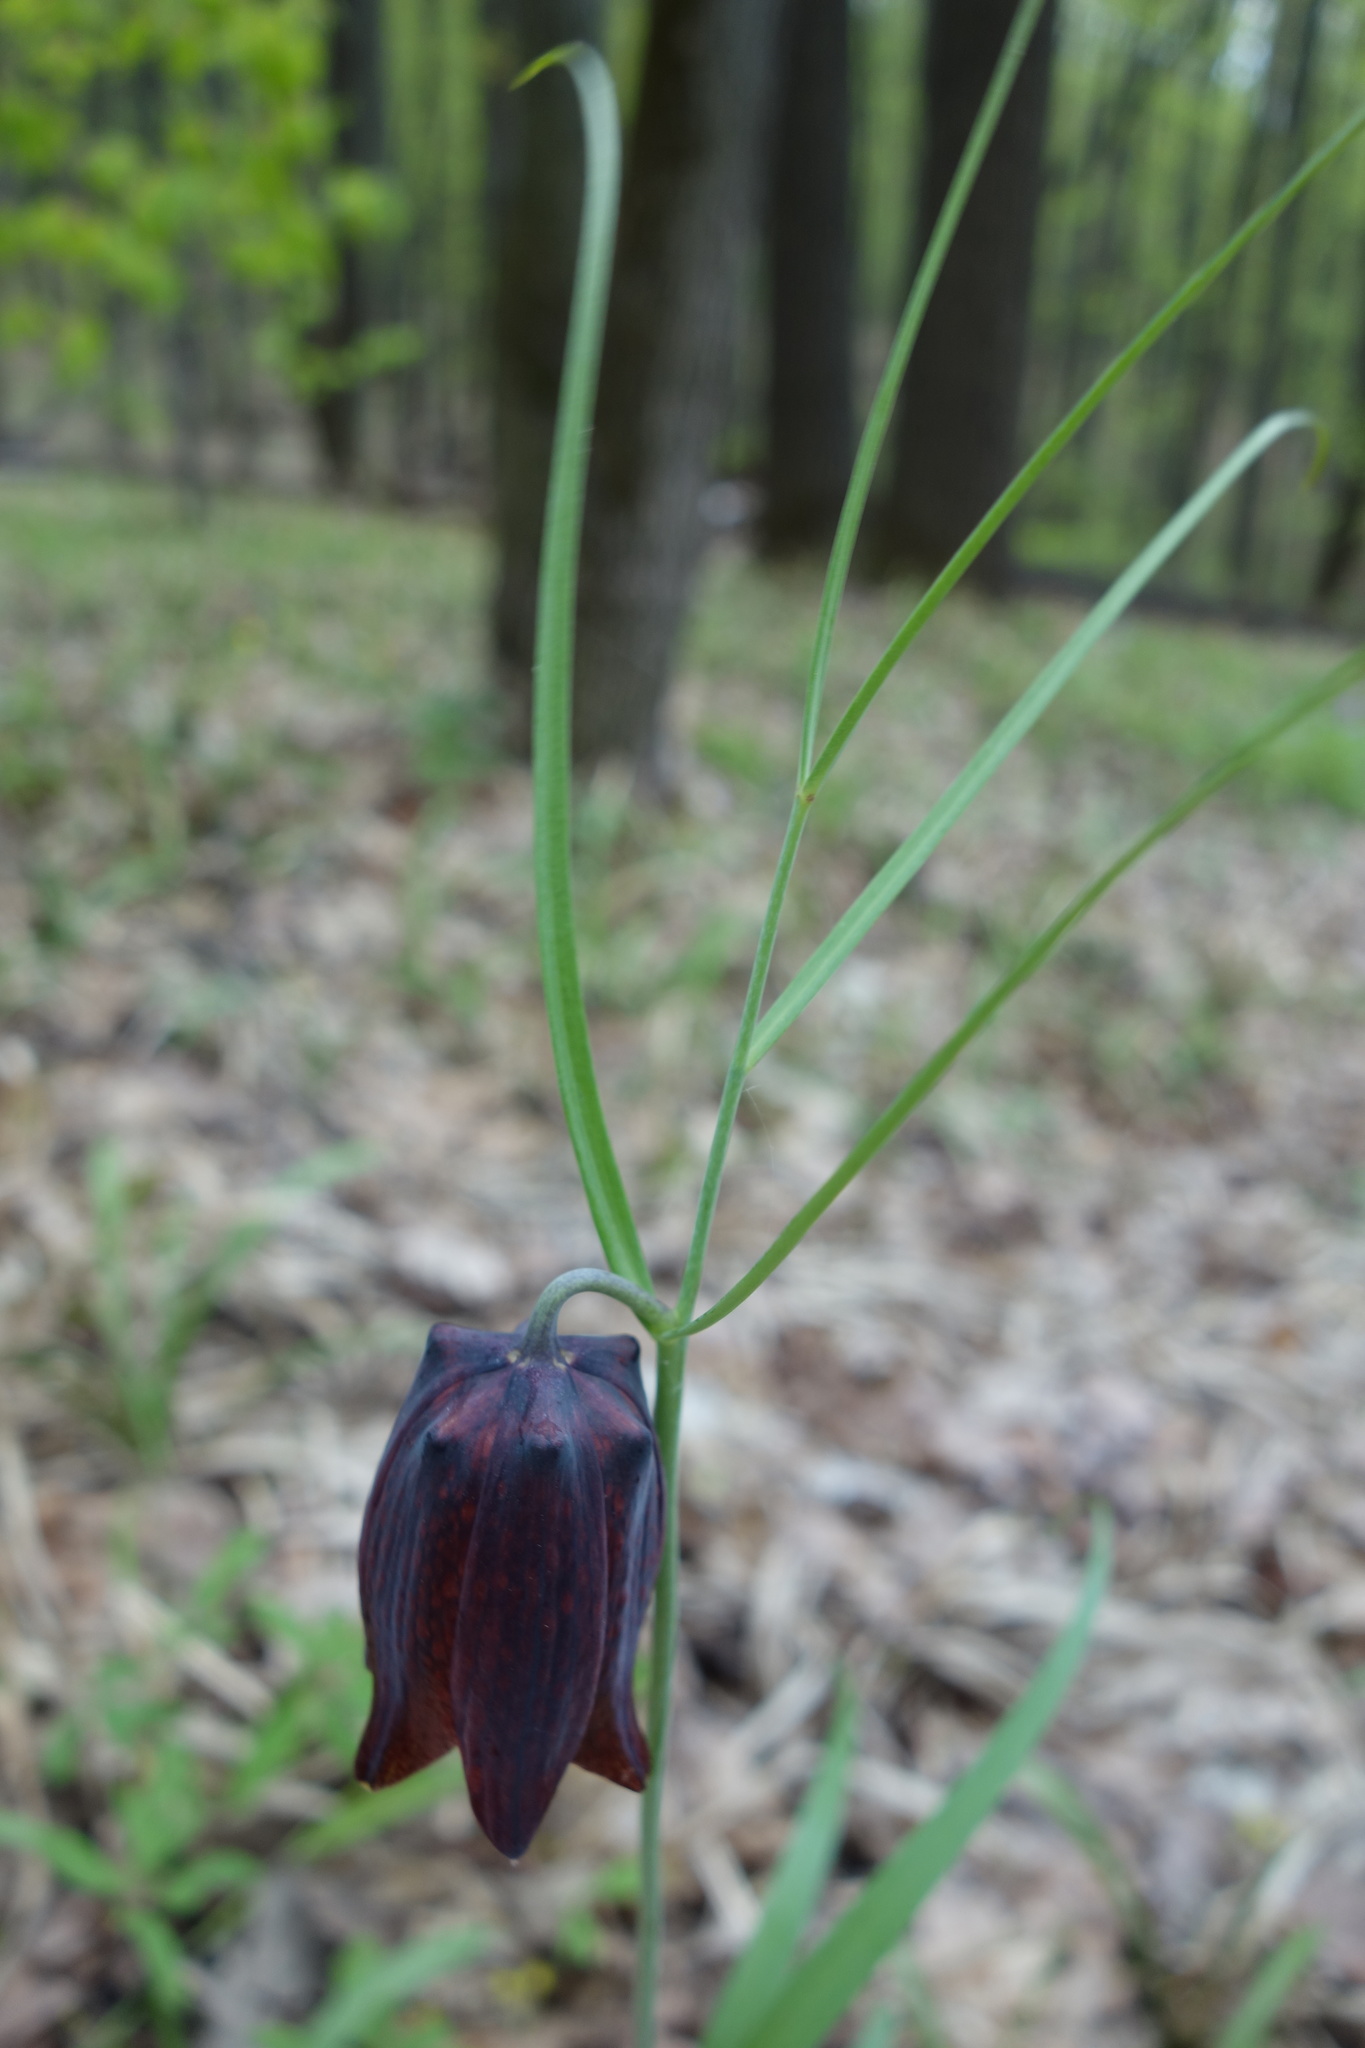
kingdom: Plantae
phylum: Tracheophyta
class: Liliopsida
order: Liliales
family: Liliaceae
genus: Fritillaria
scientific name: Fritillaria ruthenica
